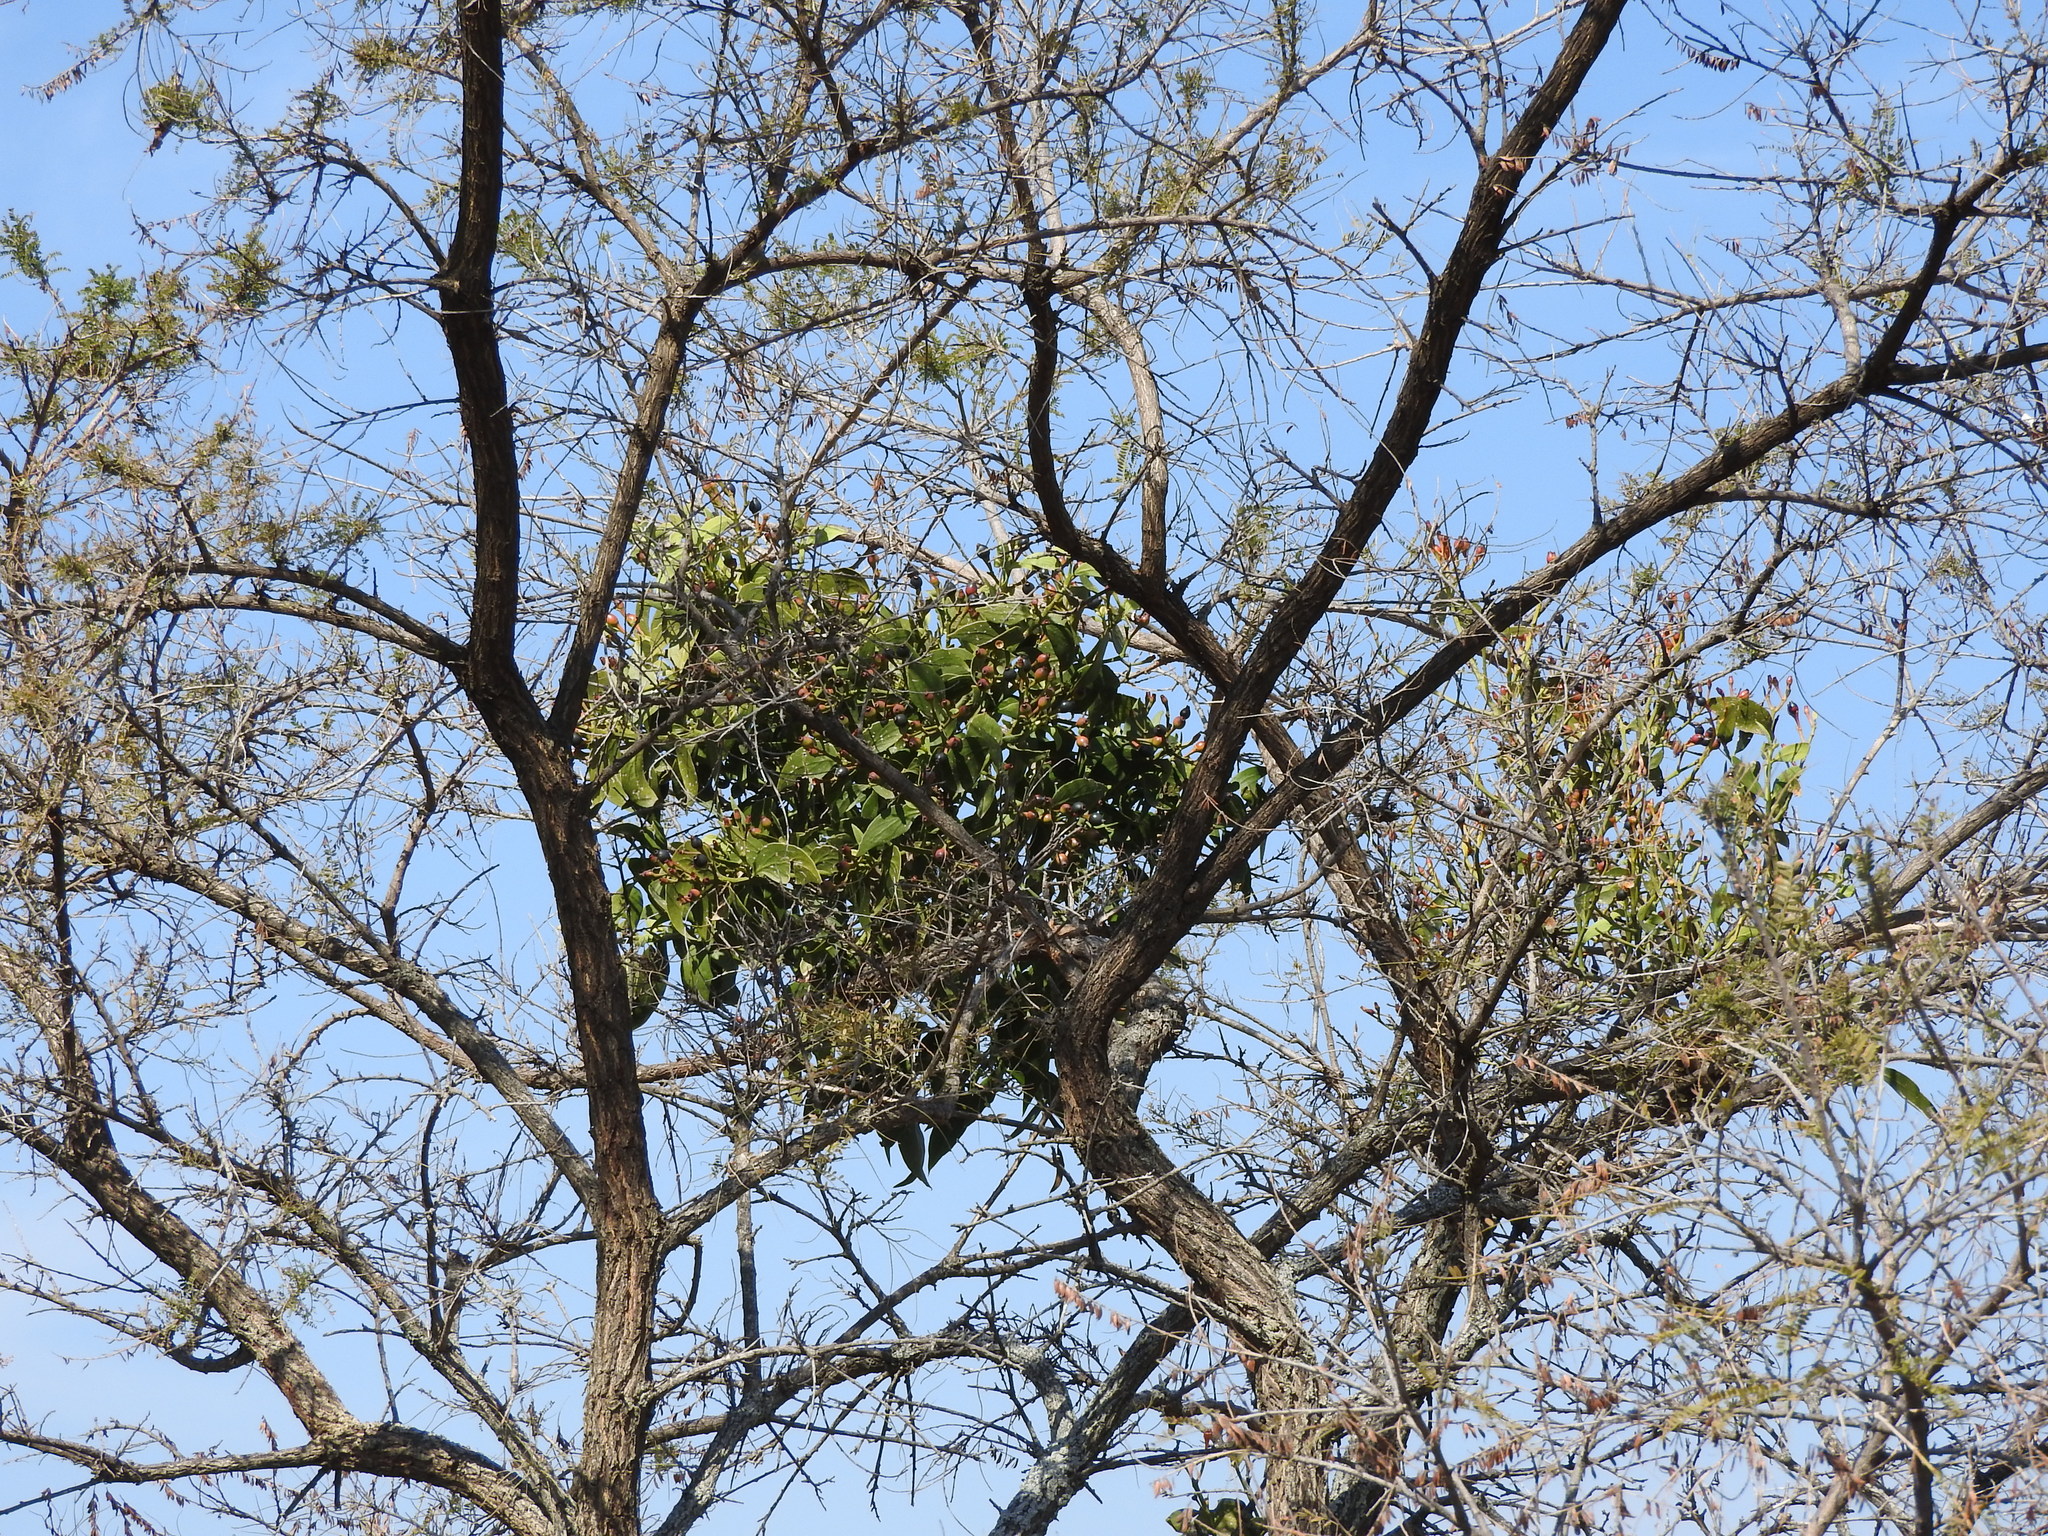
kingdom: Plantae
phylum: Tracheophyta
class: Magnoliopsida
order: Santalales
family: Loranthaceae
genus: Psittacanthus
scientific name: Psittacanthus calyculatus
